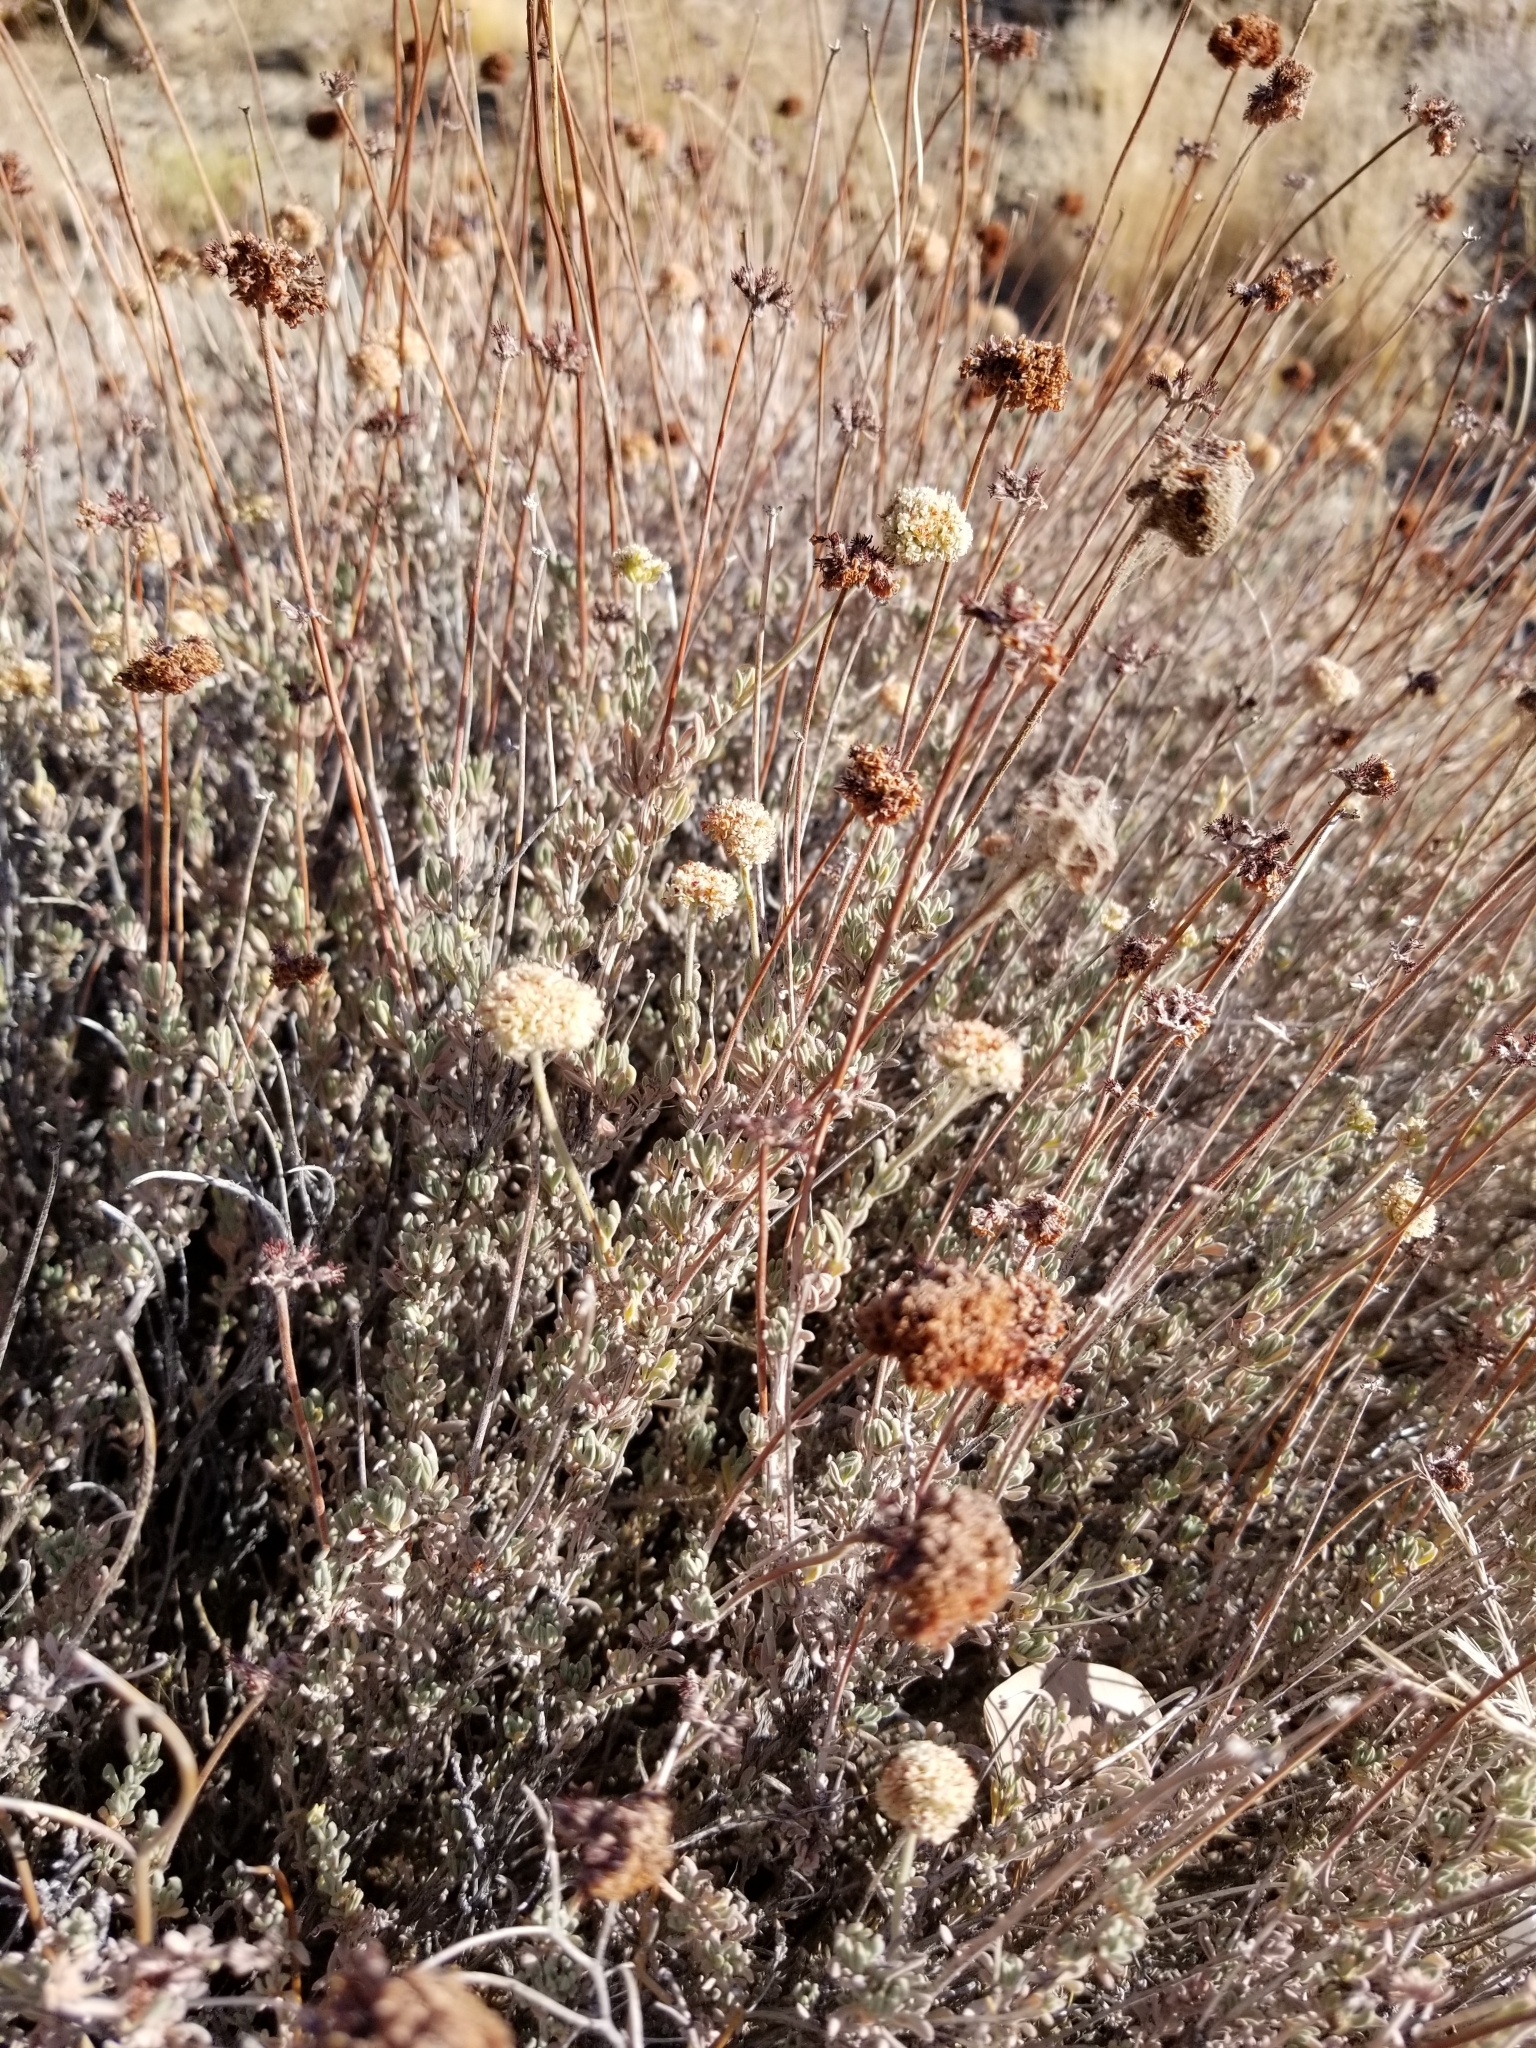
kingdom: Plantae
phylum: Tracheophyta
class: Magnoliopsida
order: Caryophyllales
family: Polygonaceae
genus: Eriogonum
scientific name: Eriogonum fasciculatum
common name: California wild buckwheat
